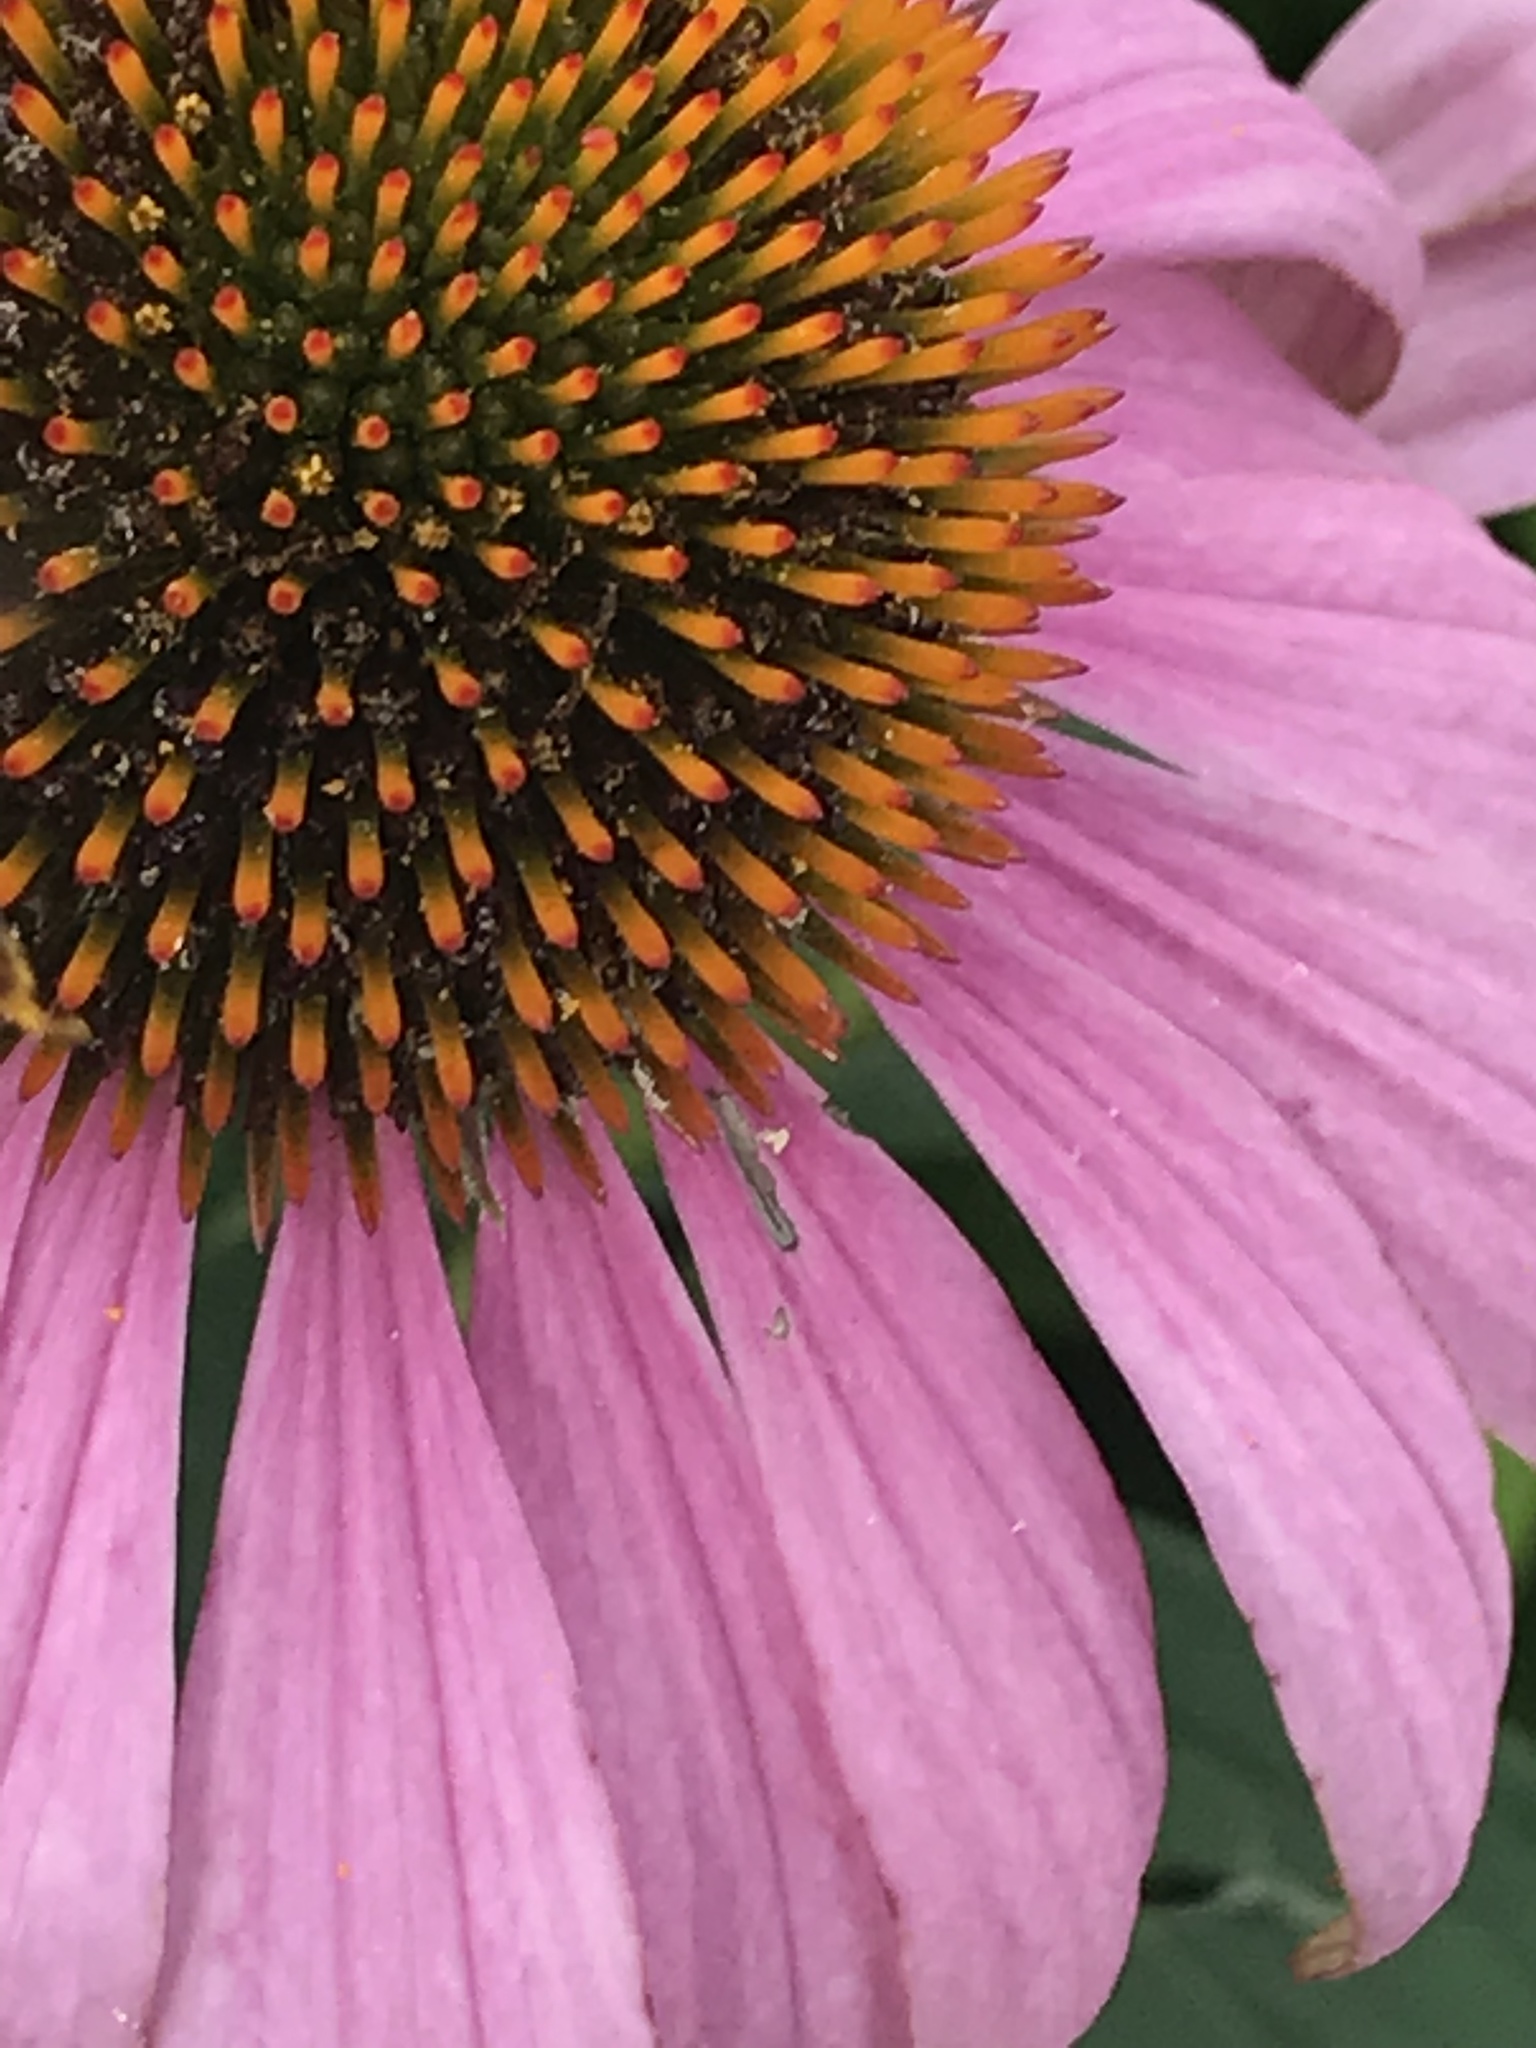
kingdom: Animalia
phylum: Arthropoda
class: Insecta
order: Hymenoptera
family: Apidae
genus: Apis
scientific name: Apis mellifera
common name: Honey bee
